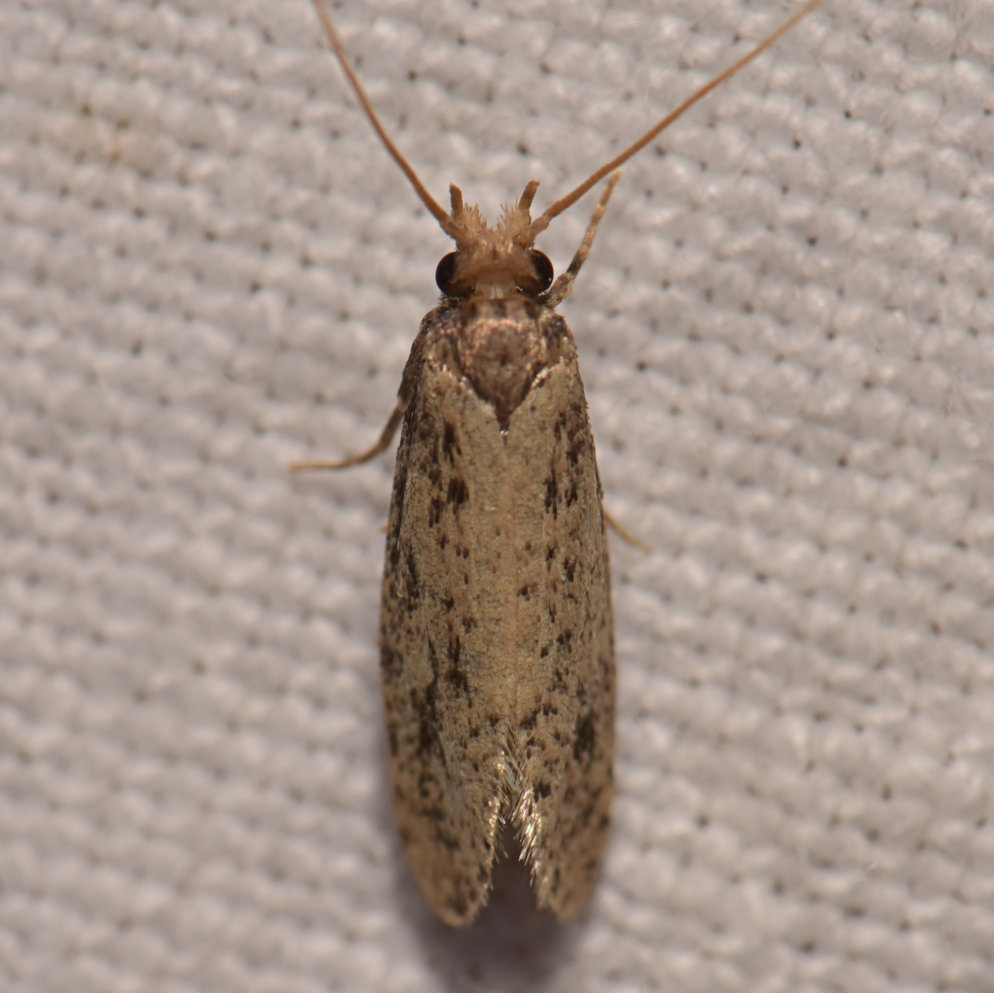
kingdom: Animalia
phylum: Arthropoda
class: Insecta
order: Lepidoptera
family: Tineidae
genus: Amydria
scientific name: Amydria effrentella
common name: Brown-blotched amydria moth
